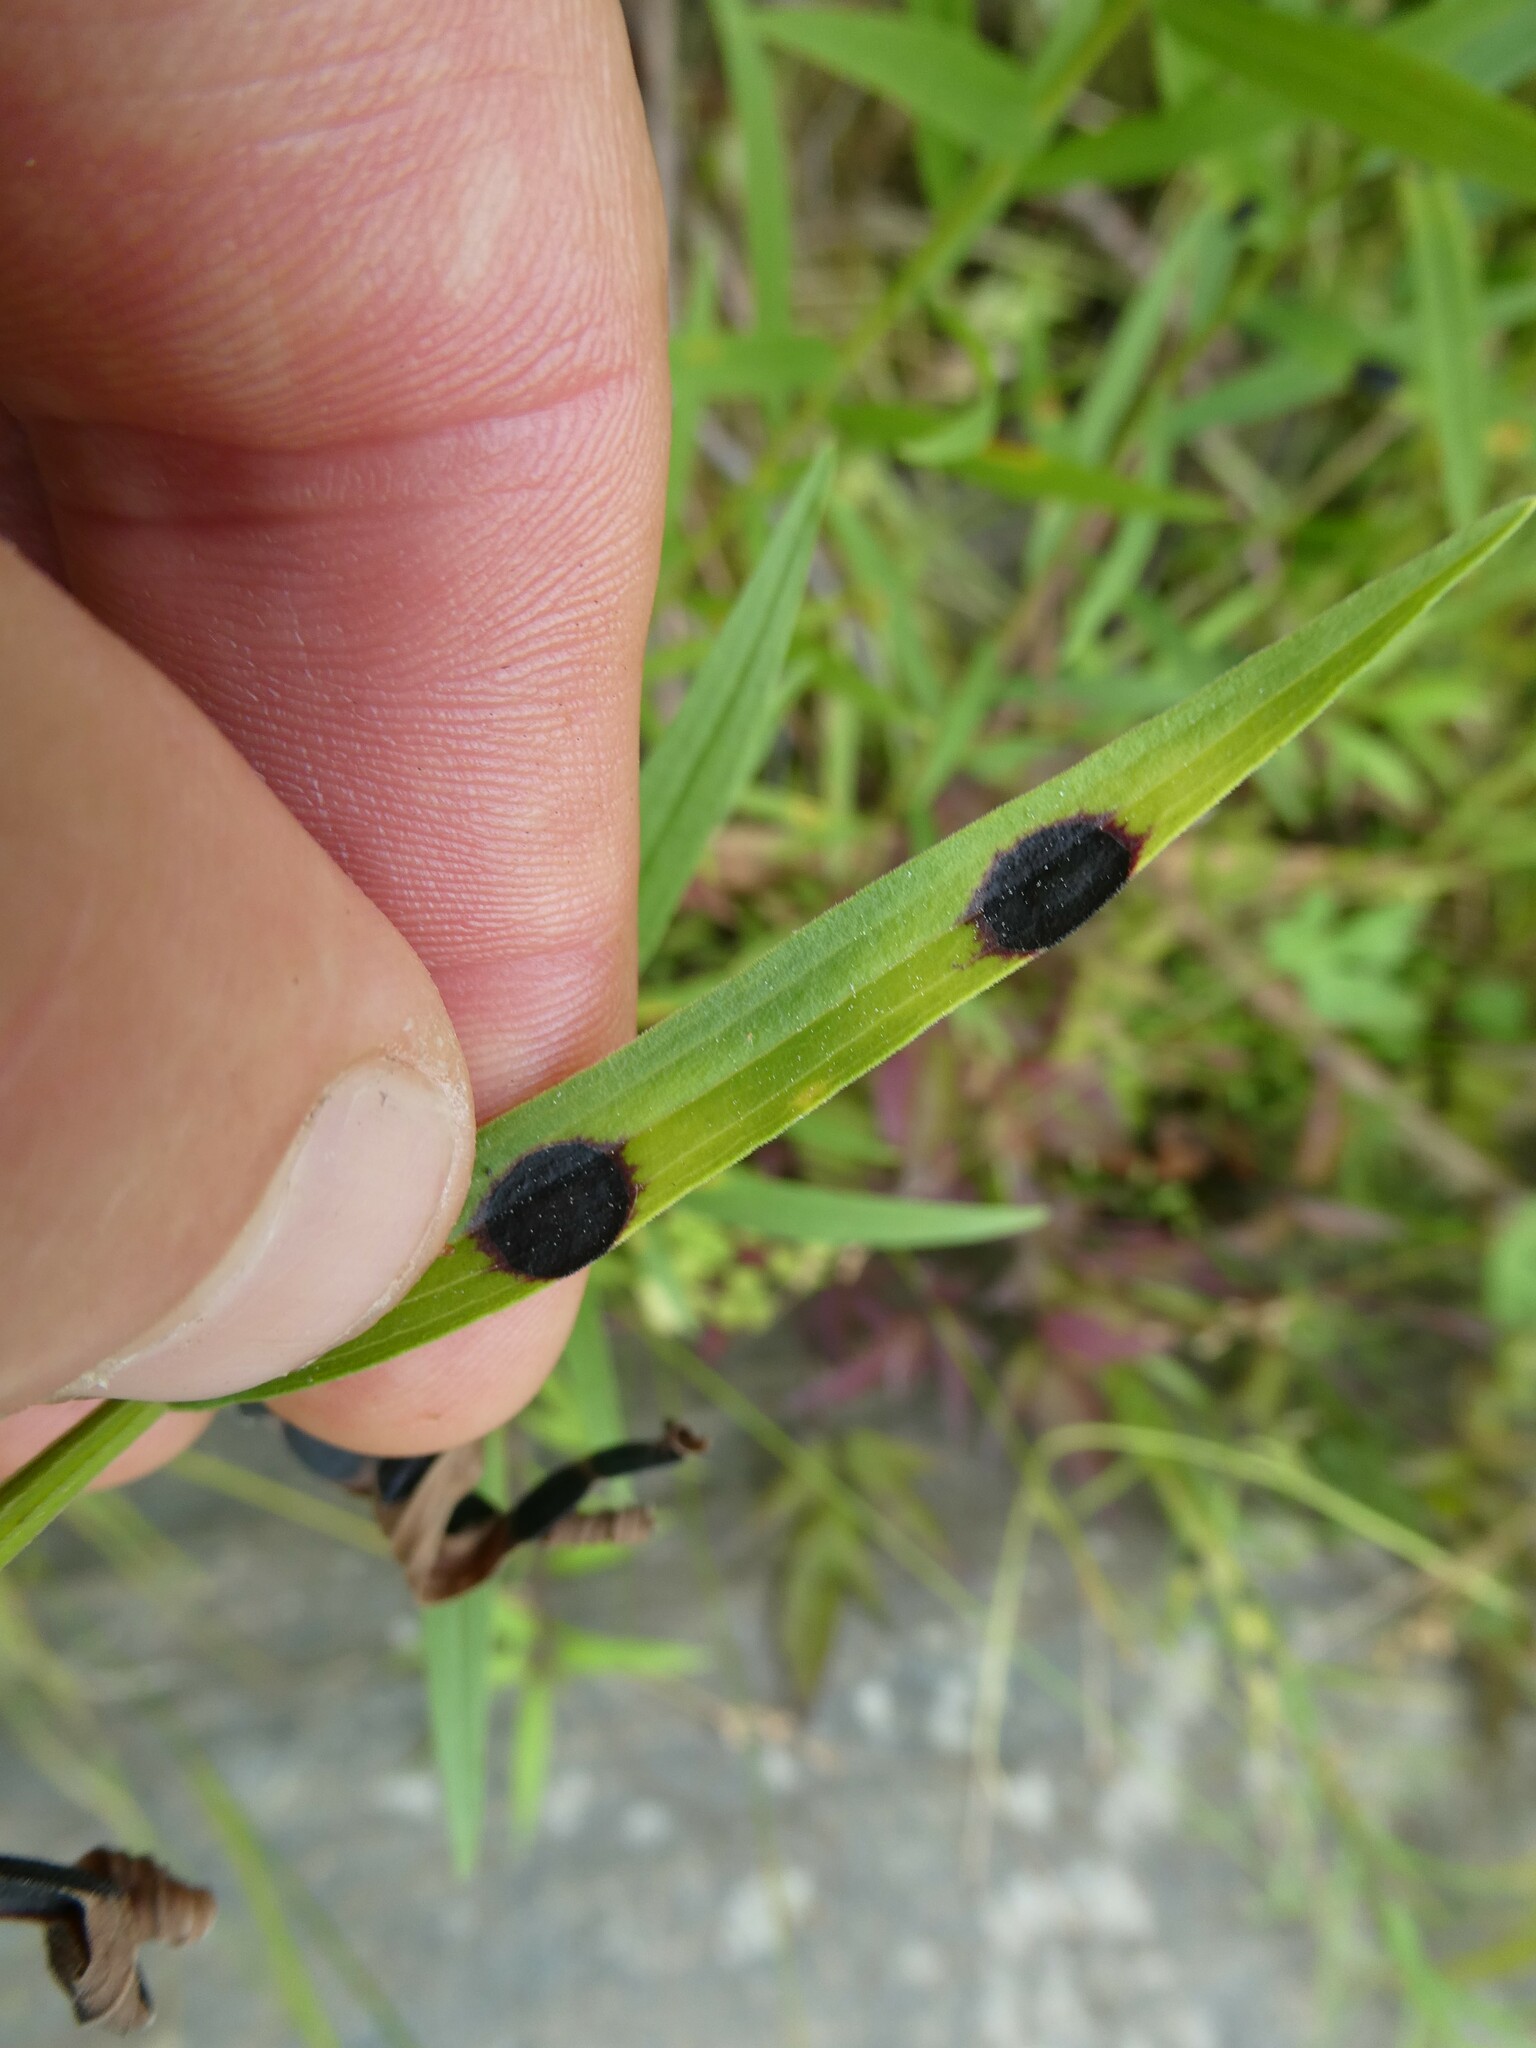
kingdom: Animalia
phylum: Arthropoda
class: Insecta
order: Diptera
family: Cecidomyiidae
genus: Asteromyia
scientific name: Asteromyia euthamiae
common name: Euthamia leaf gall midge
